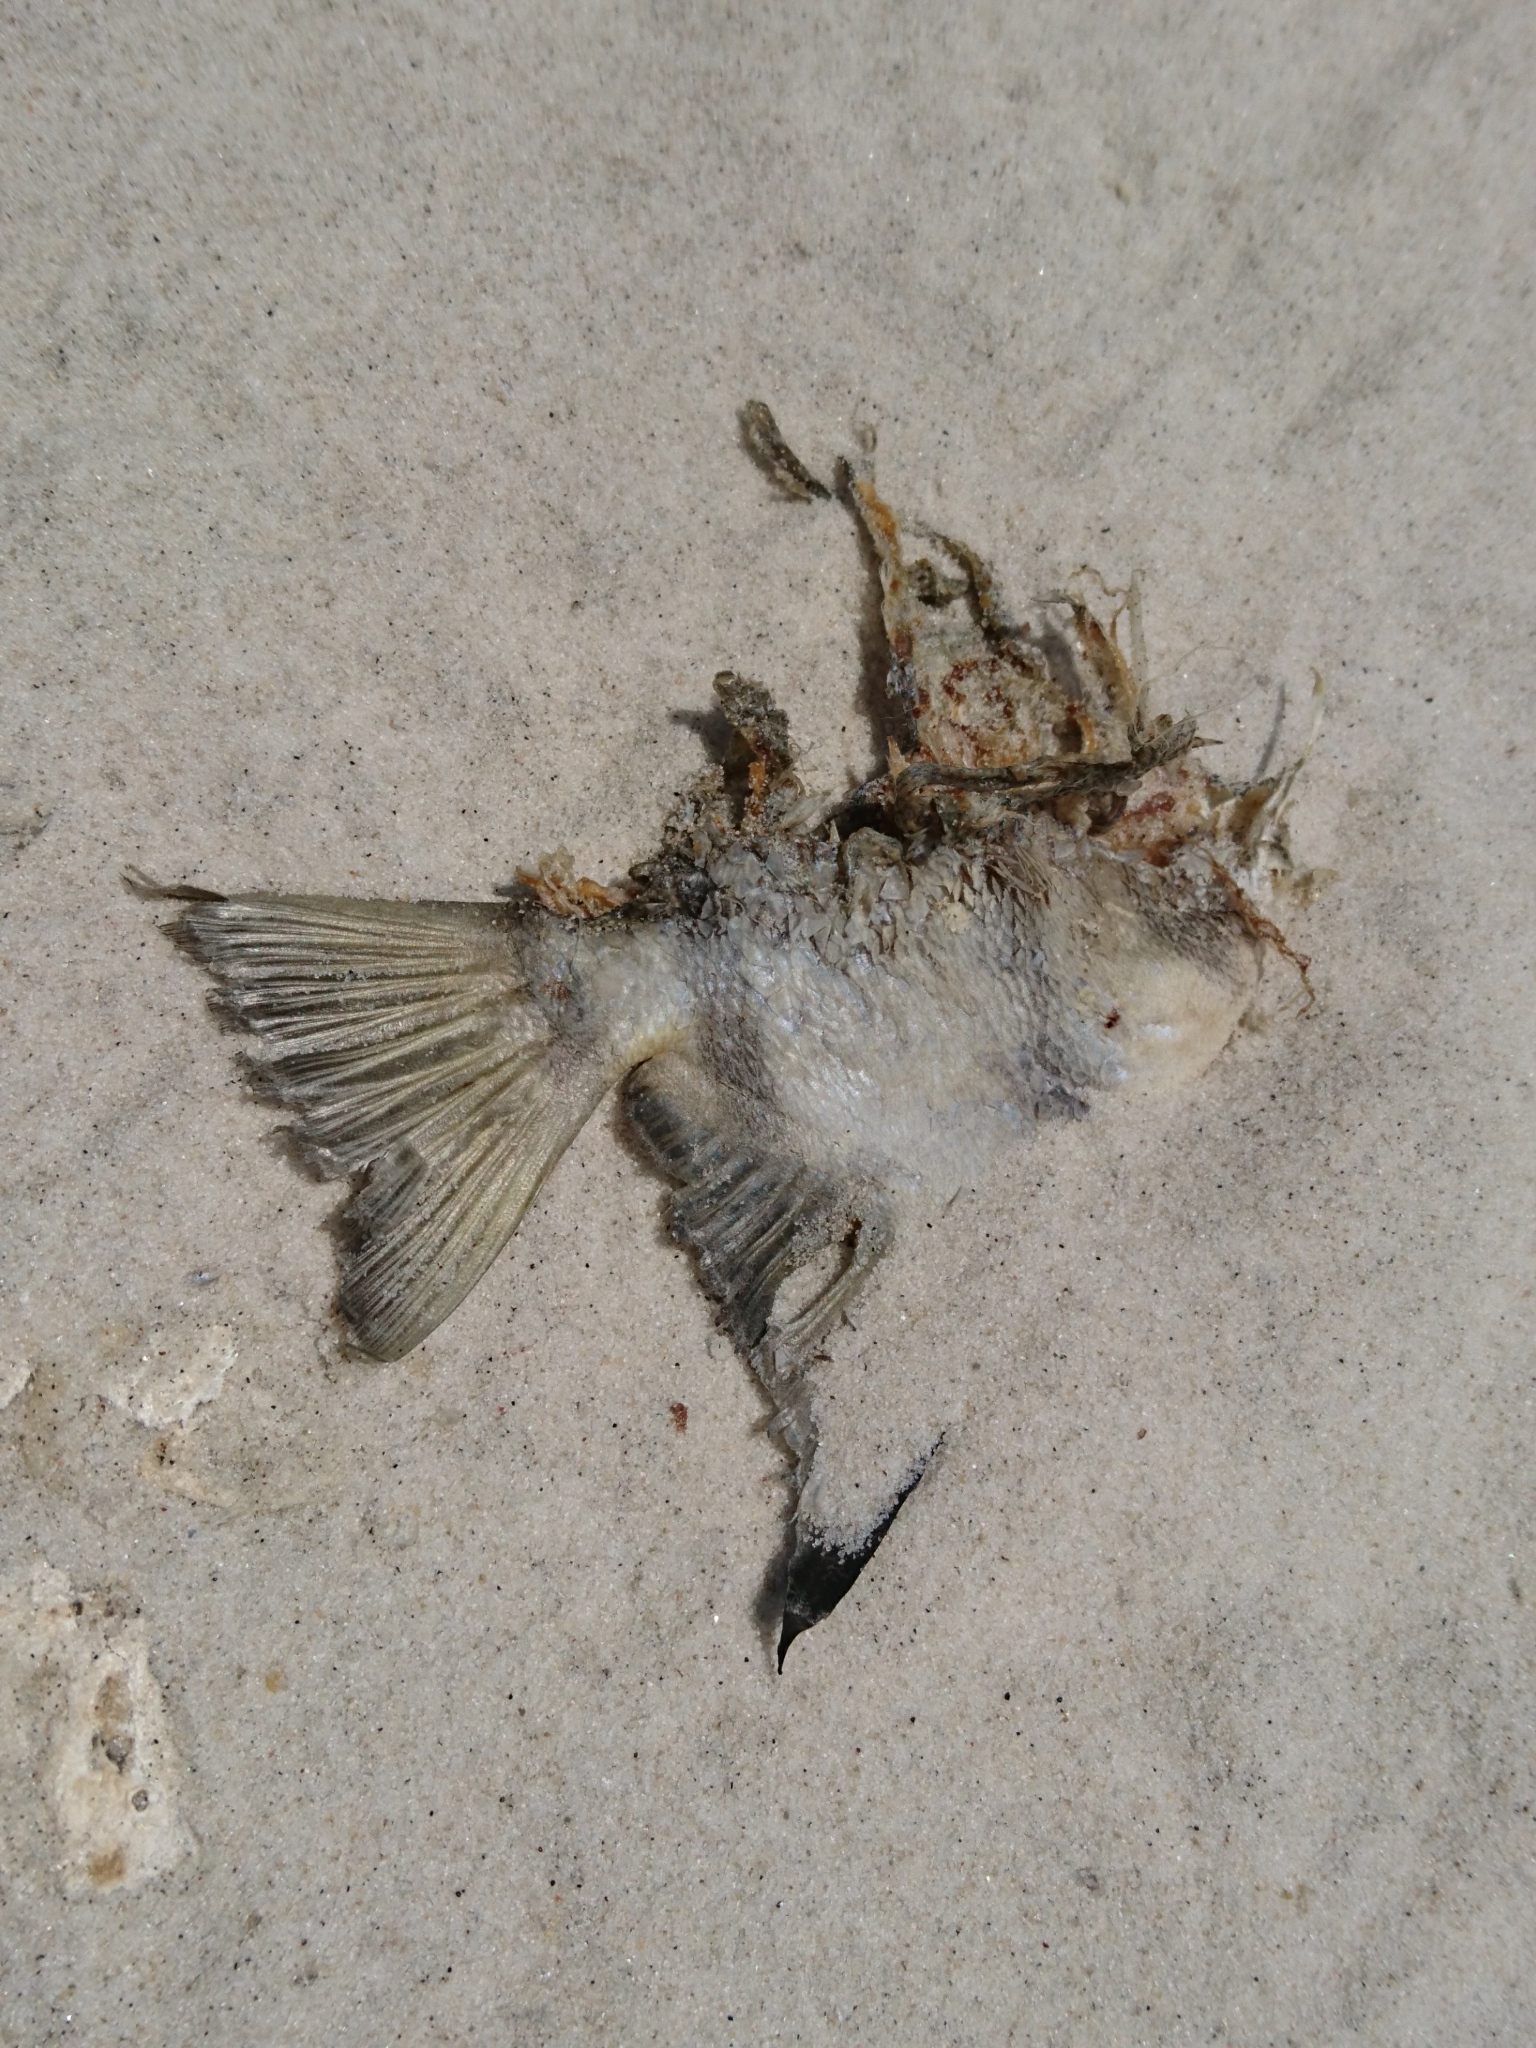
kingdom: Animalia
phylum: Chordata
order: Perciformes
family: Ephippidae
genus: Chaetodipterus
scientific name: Chaetodipterus faber
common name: Ocean cobbler
